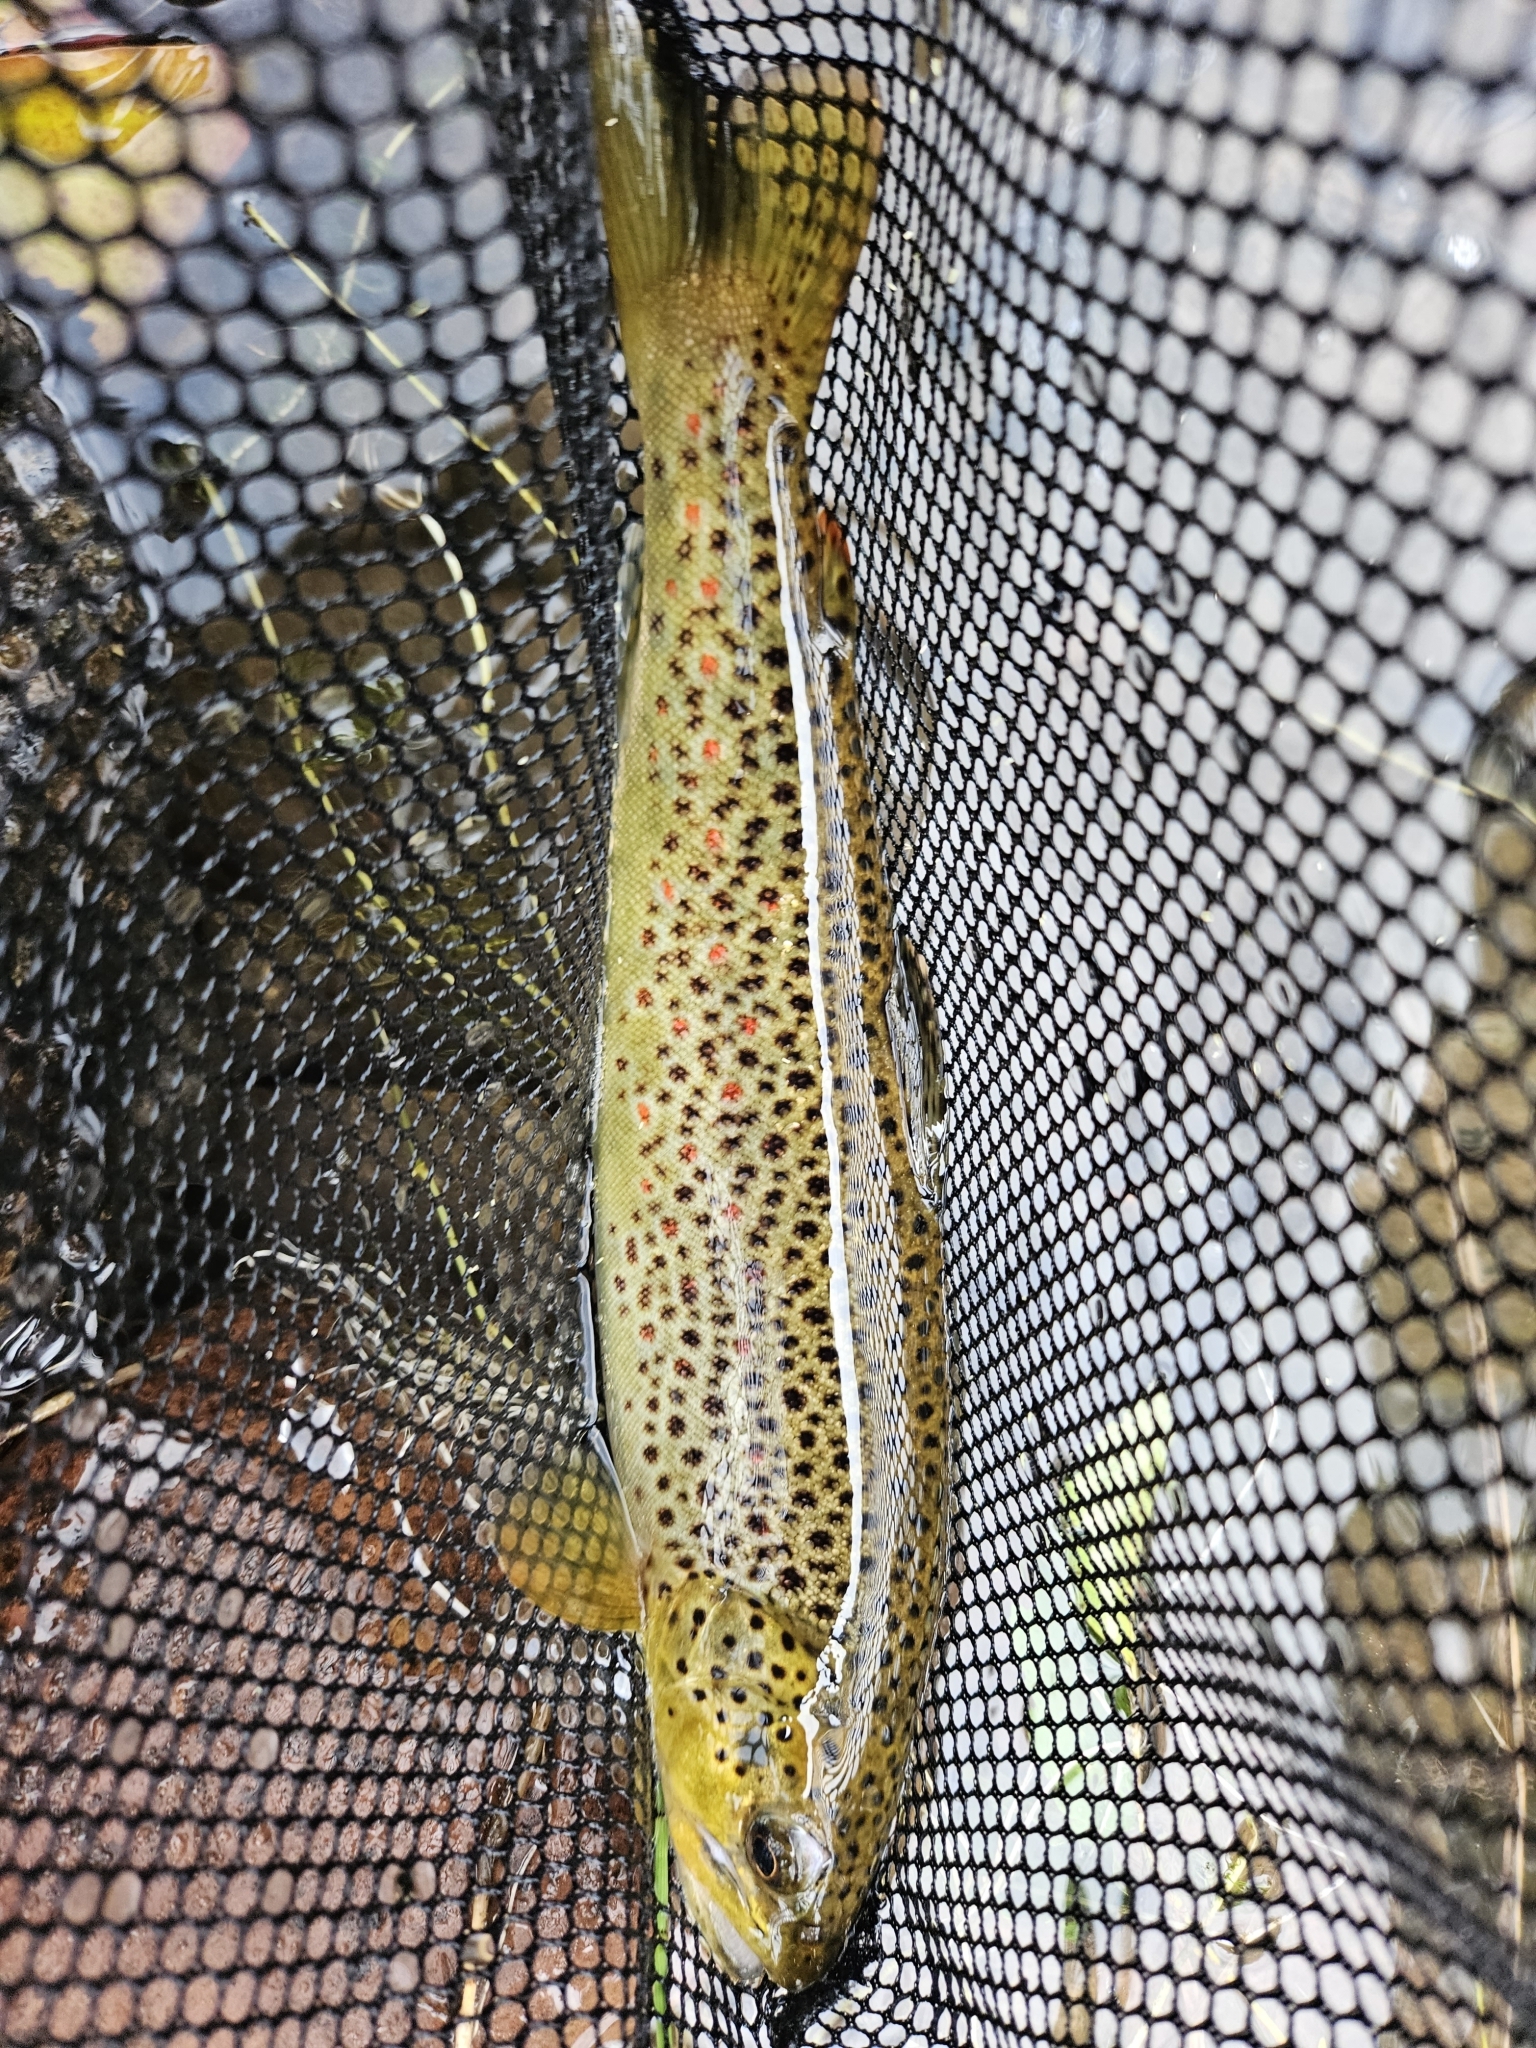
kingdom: Animalia
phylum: Chordata
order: Salmoniformes
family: Salmonidae
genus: Salmo
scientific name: Salmo trutta
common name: Brown trout
